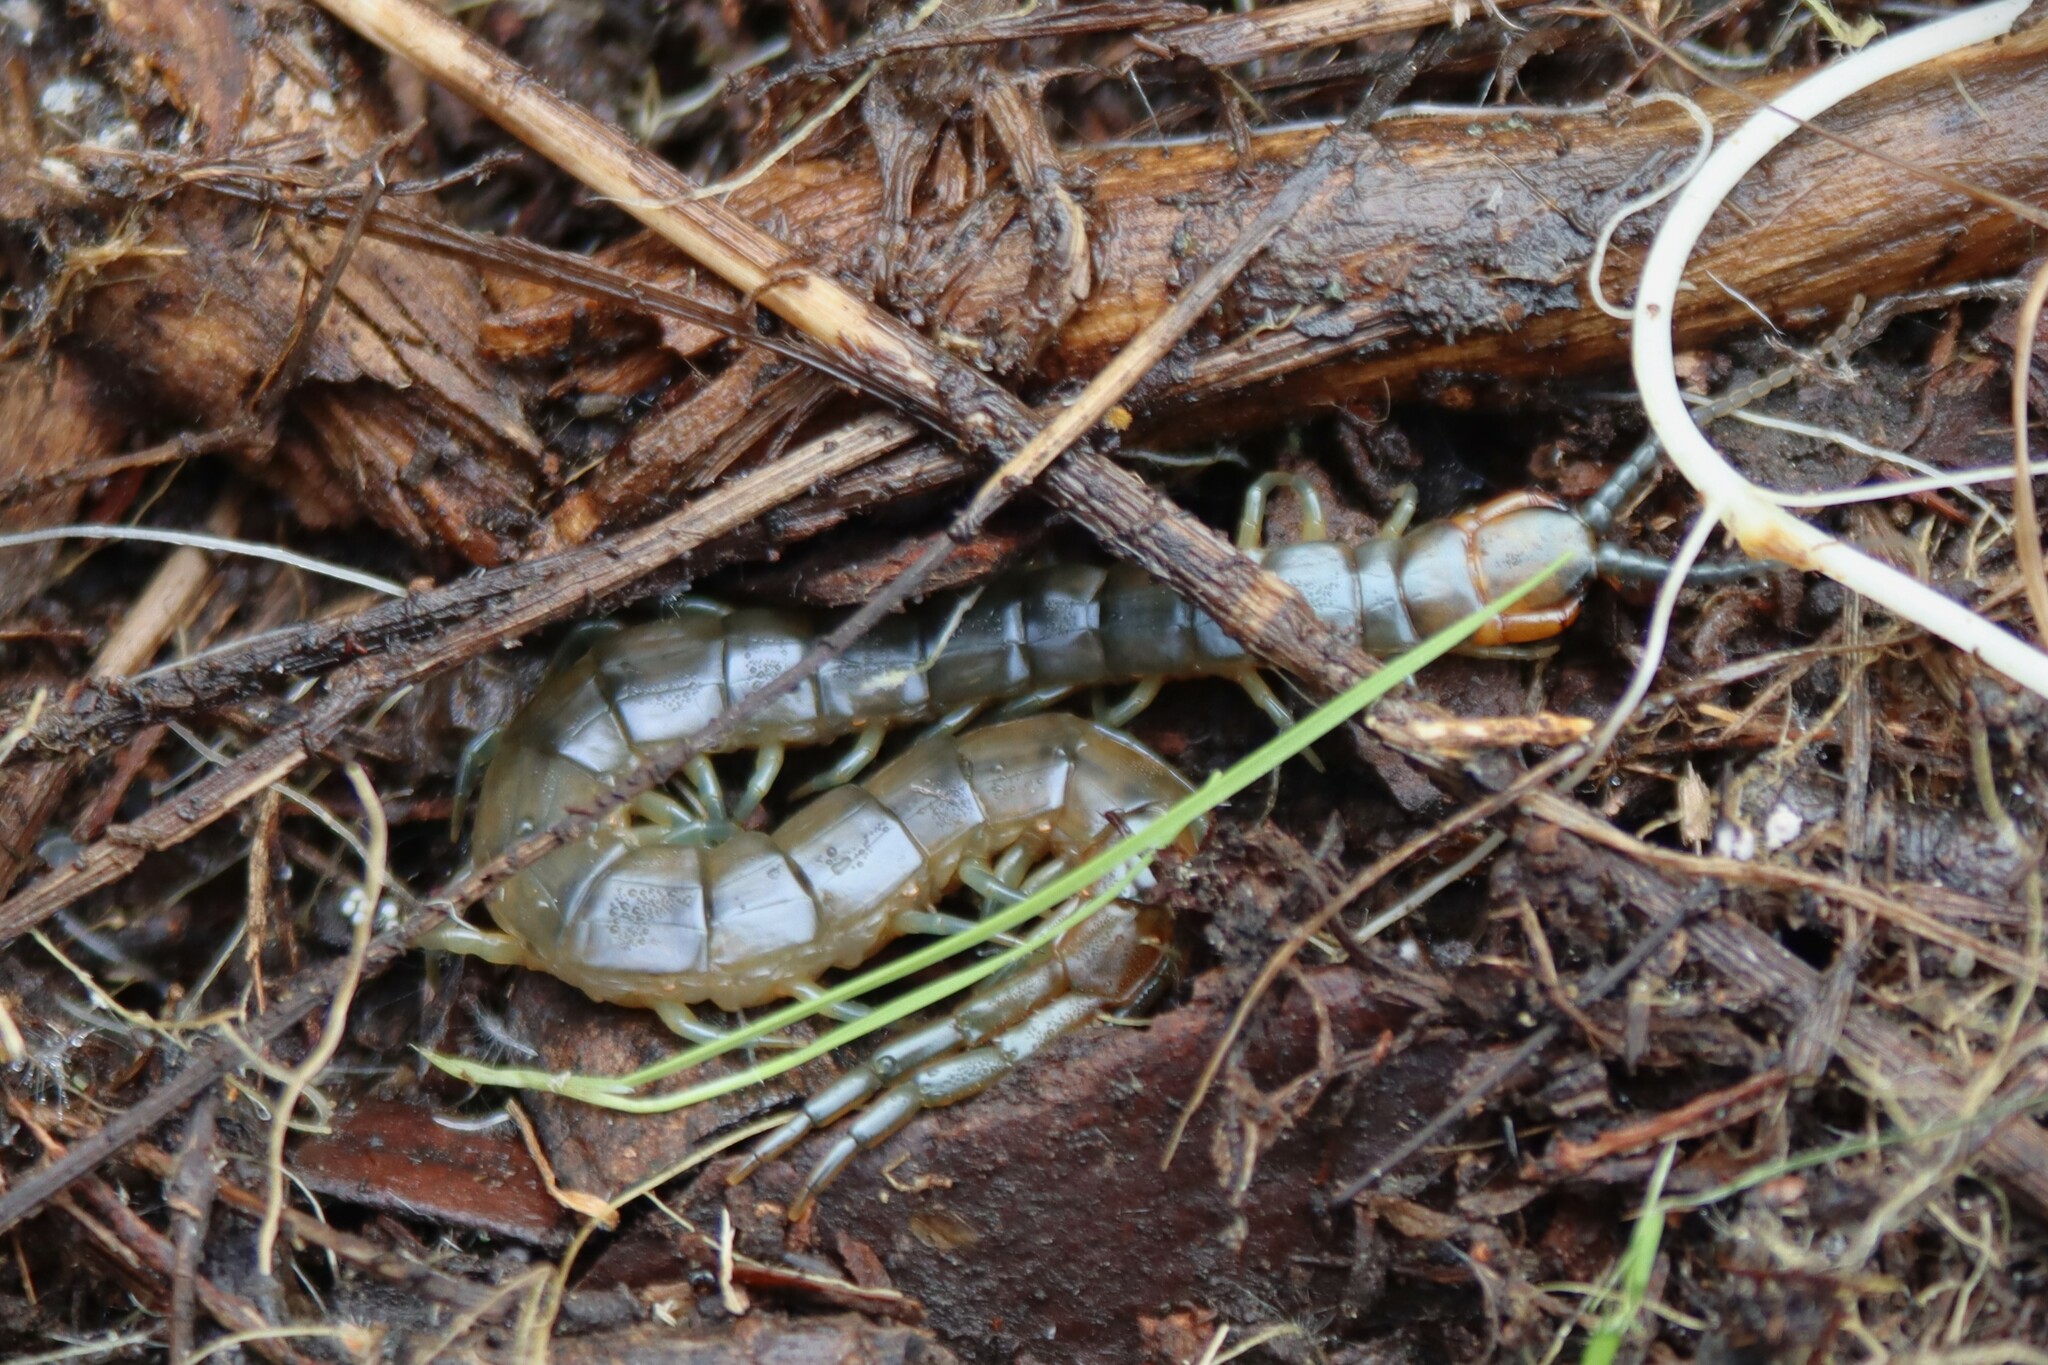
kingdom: Animalia
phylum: Arthropoda
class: Chilopoda
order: Scolopendromorpha
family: Scolopendridae
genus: Scolopendra
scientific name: Scolopendra cingulata
